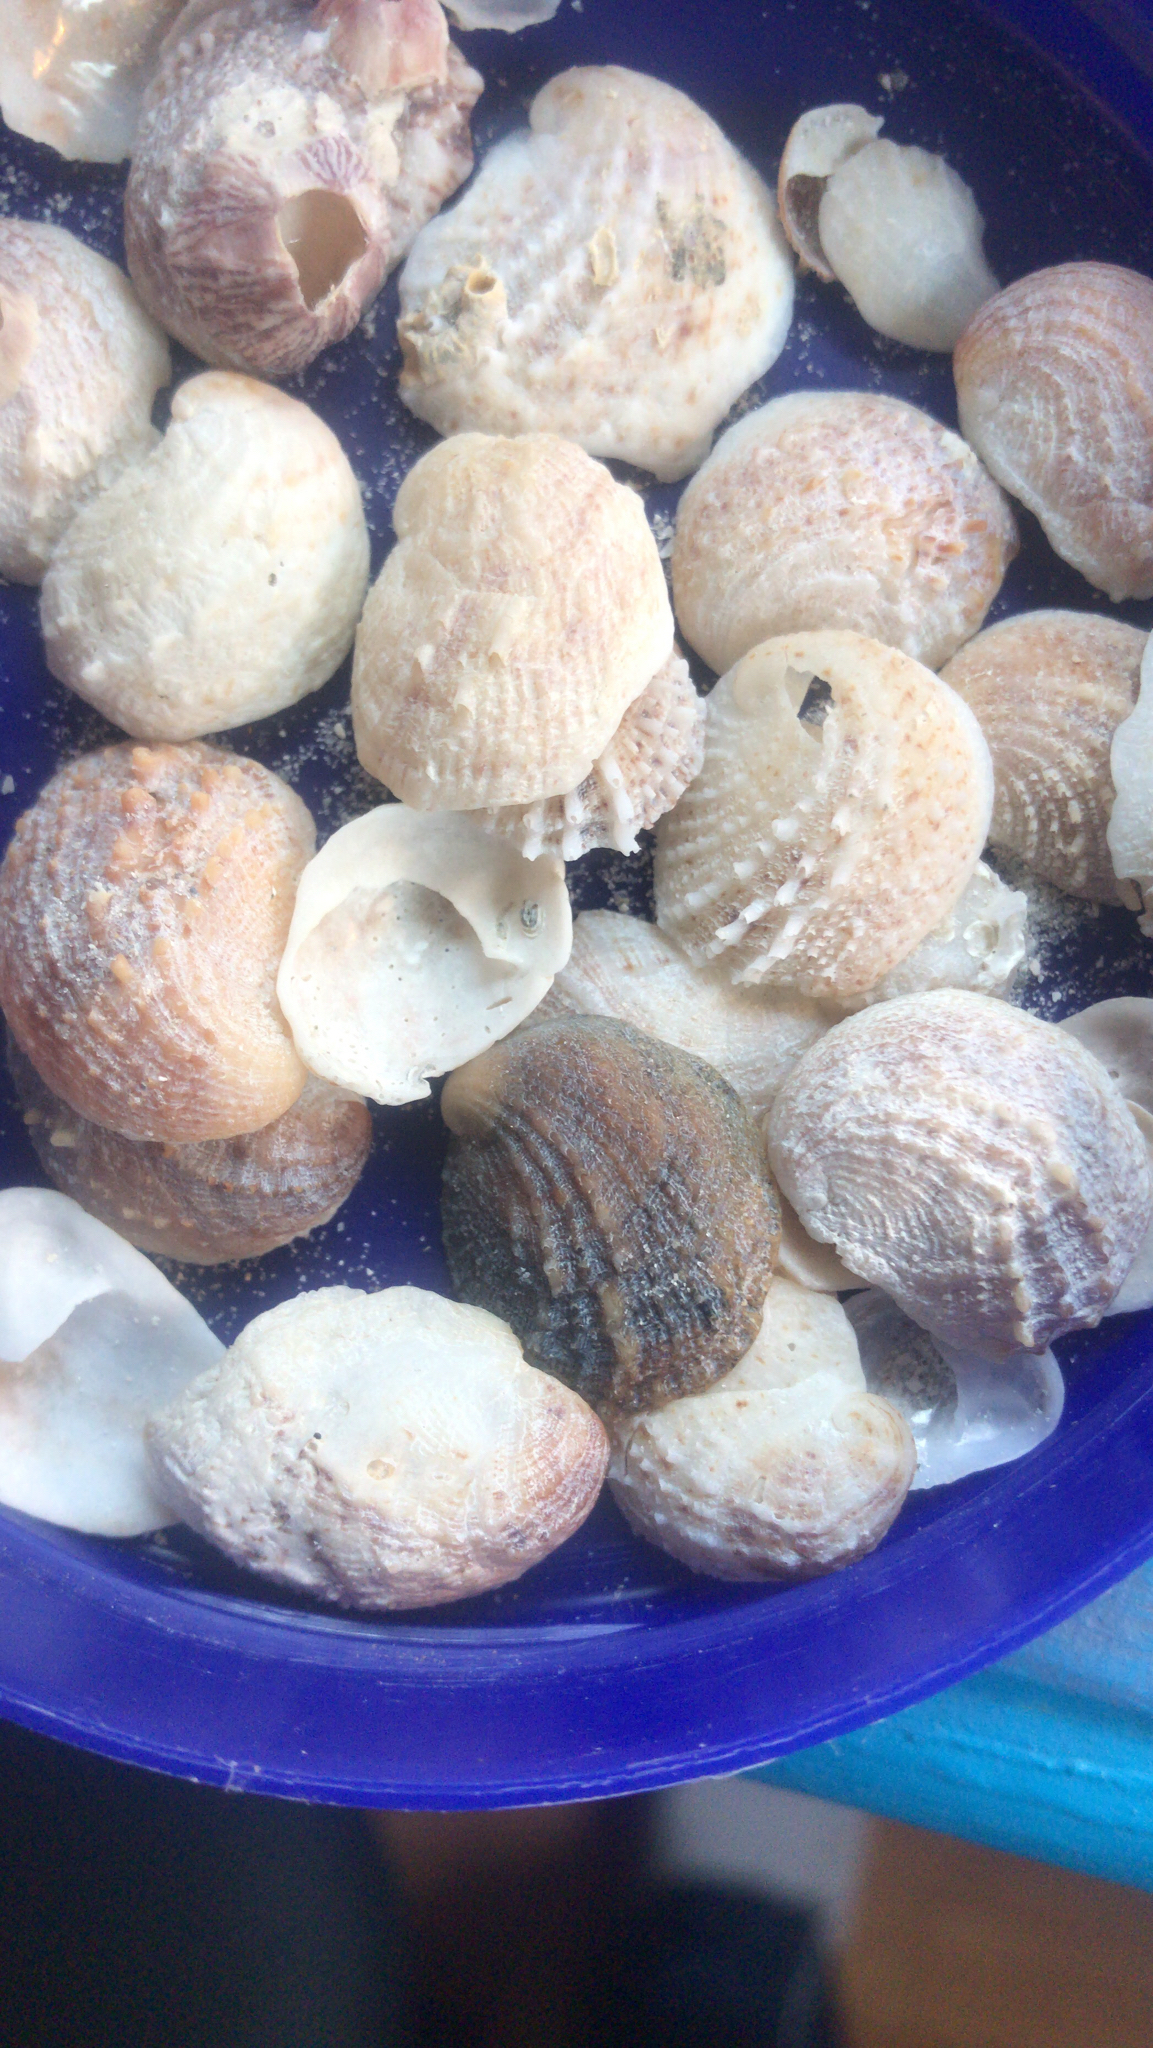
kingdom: Animalia
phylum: Mollusca
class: Gastropoda
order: Littorinimorpha
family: Calyptraeidae
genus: Bostrycapulus
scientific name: Bostrycapulus aculeatus
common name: Spiny slippersnail
